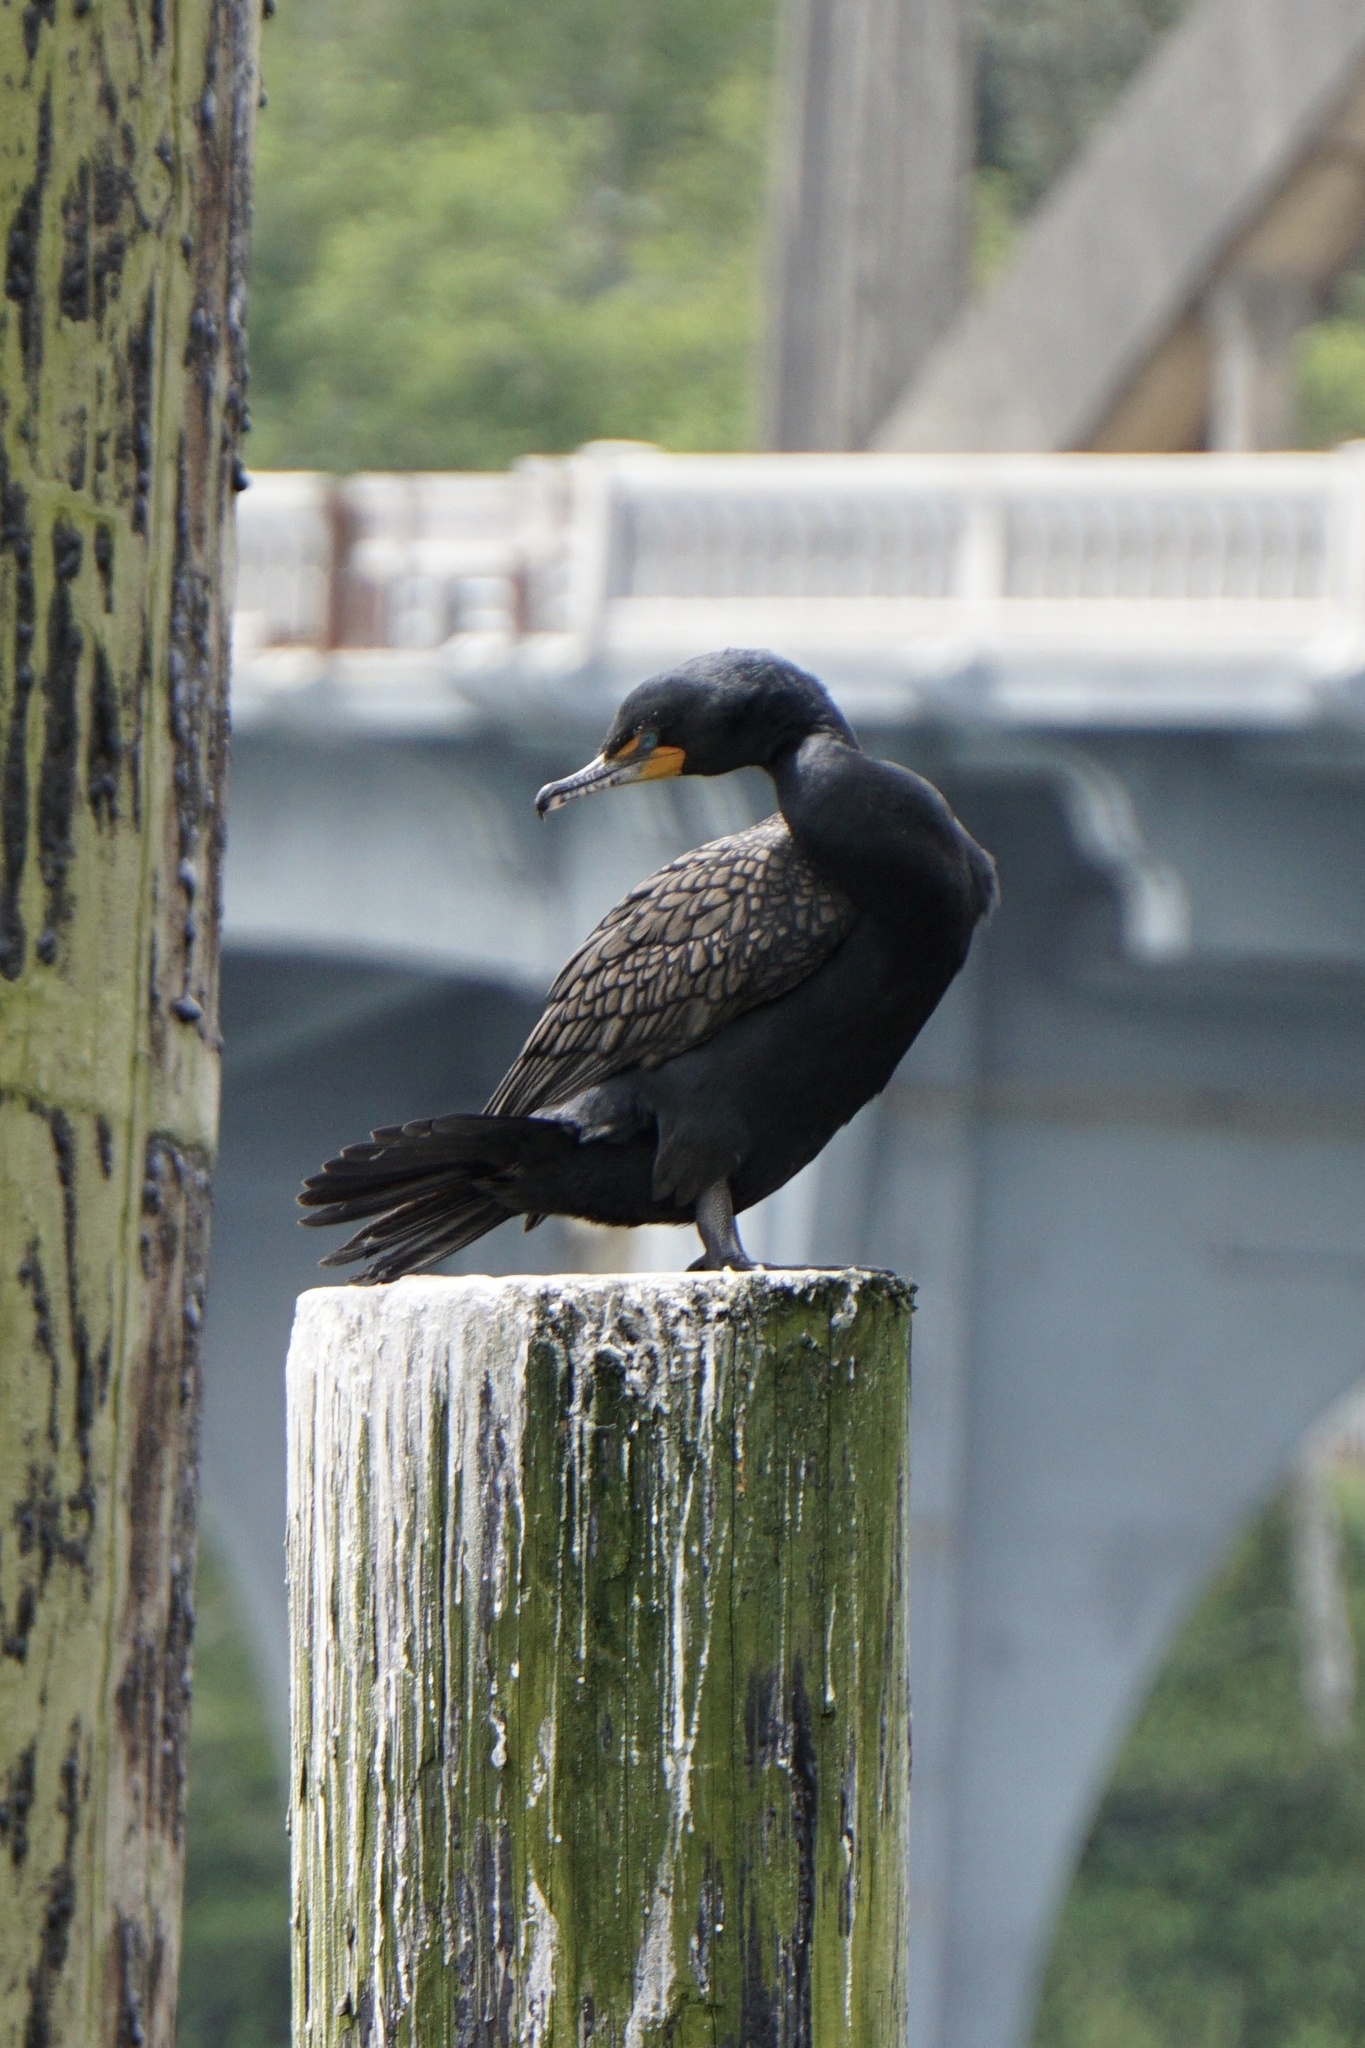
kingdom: Animalia
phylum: Chordata
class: Aves
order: Suliformes
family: Phalacrocoracidae
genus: Phalacrocorax
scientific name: Phalacrocorax auritus
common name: Double-crested cormorant
